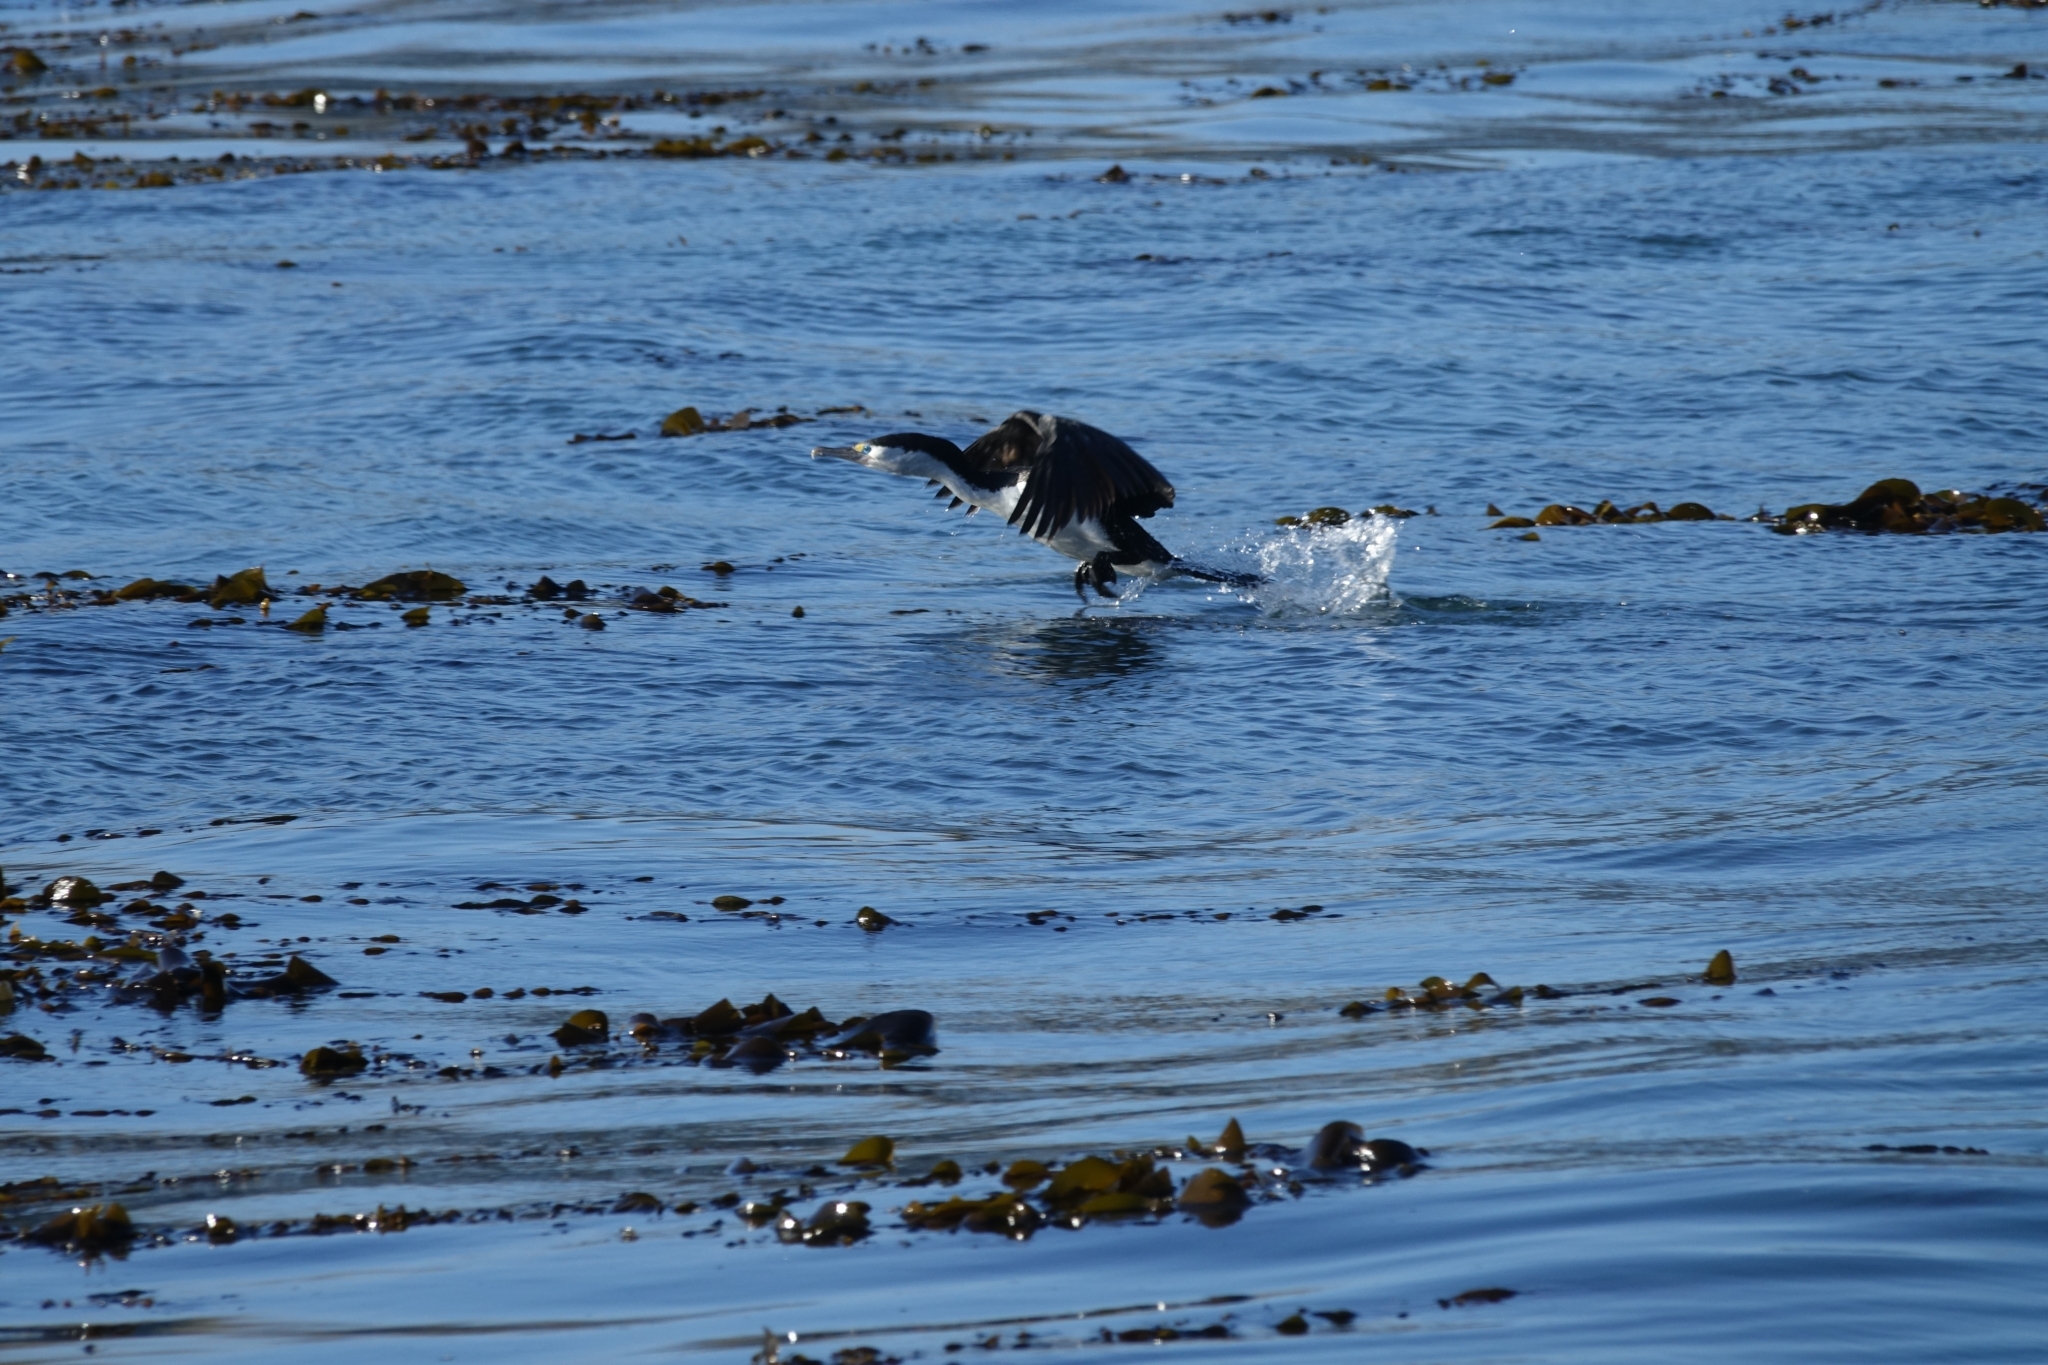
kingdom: Animalia
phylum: Chordata
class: Aves
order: Suliformes
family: Phalacrocoracidae
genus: Phalacrocorax
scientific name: Phalacrocorax varius
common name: Pied cormorant
